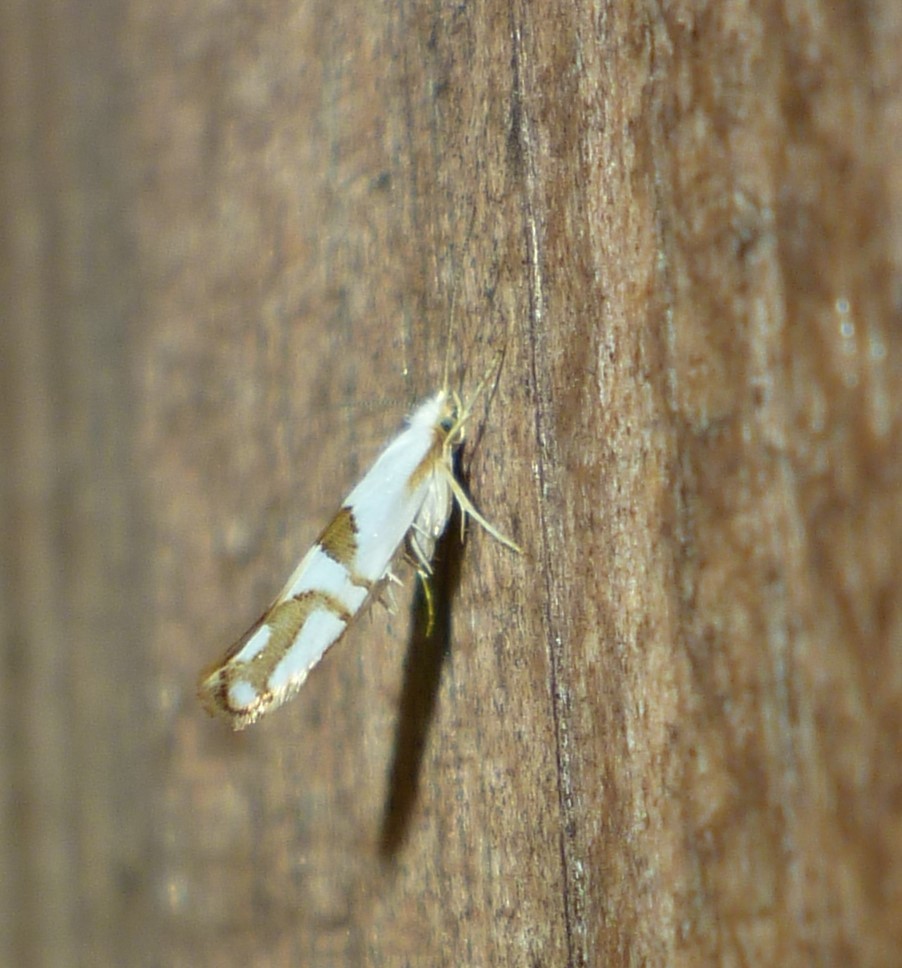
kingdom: Animalia
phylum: Arthropoda
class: Insecta
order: Lepidoptera
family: Argyresthiidae
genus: Argyresthia
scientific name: Argyresthia oreasella
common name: Cherry shoot borer moth
